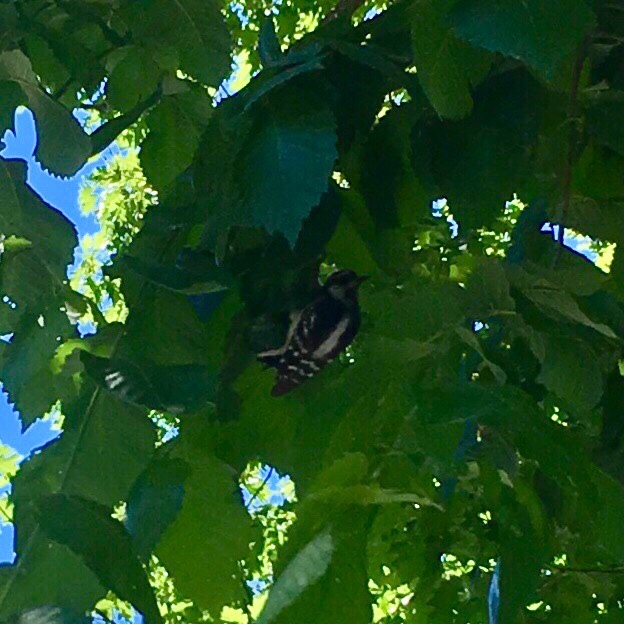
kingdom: Animalia
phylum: Chordata
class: Aves
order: Piciformes
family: Picidae
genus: Dryobates
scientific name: Dryobates pubescens
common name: Downy woodpecker
